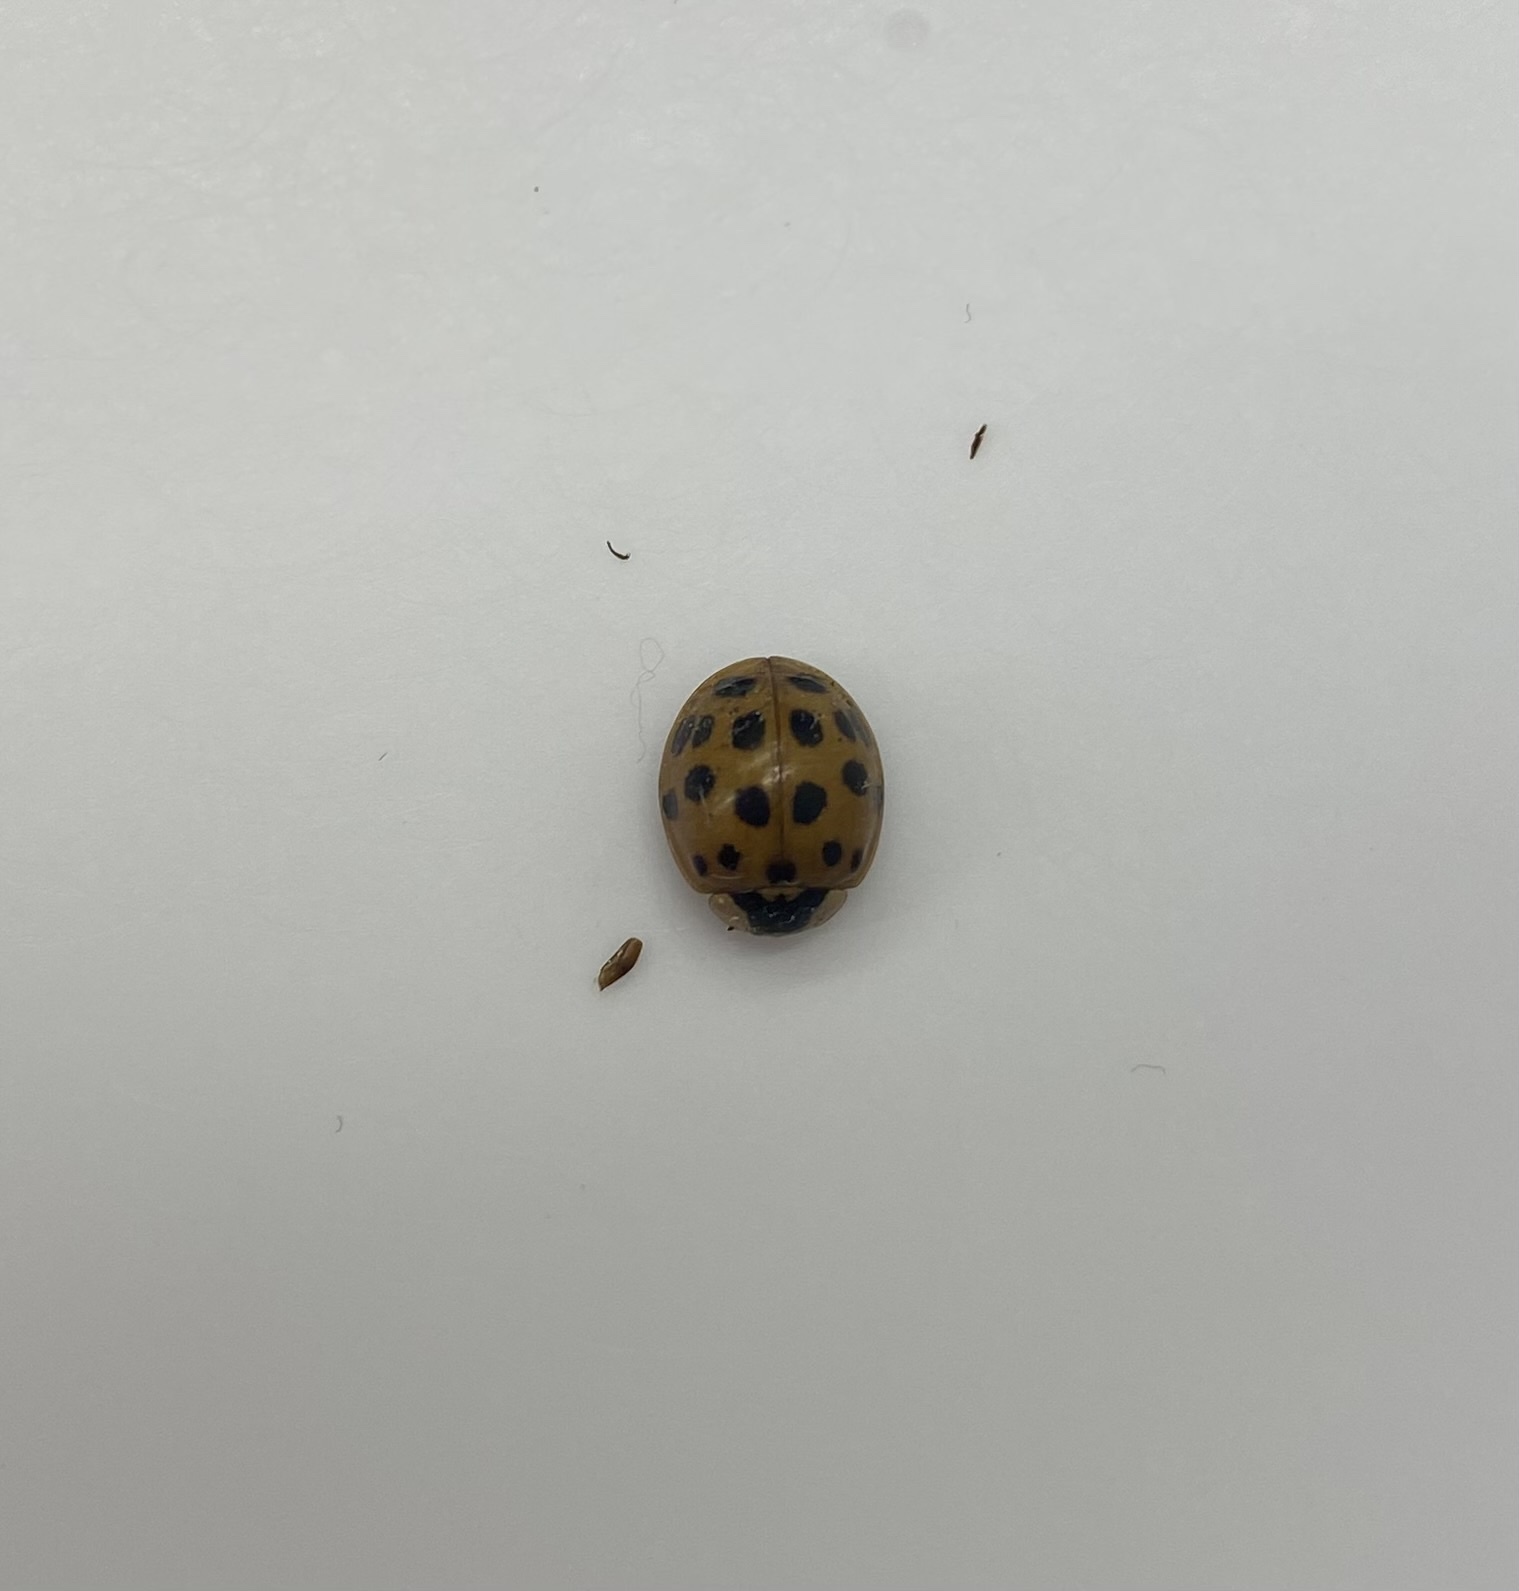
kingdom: Animalia
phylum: Arthropoda
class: Insecta
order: Coleoptera
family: Coccinellidae
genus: Harmonia
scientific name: Harmonia axyridis
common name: Harlequin ladybird
